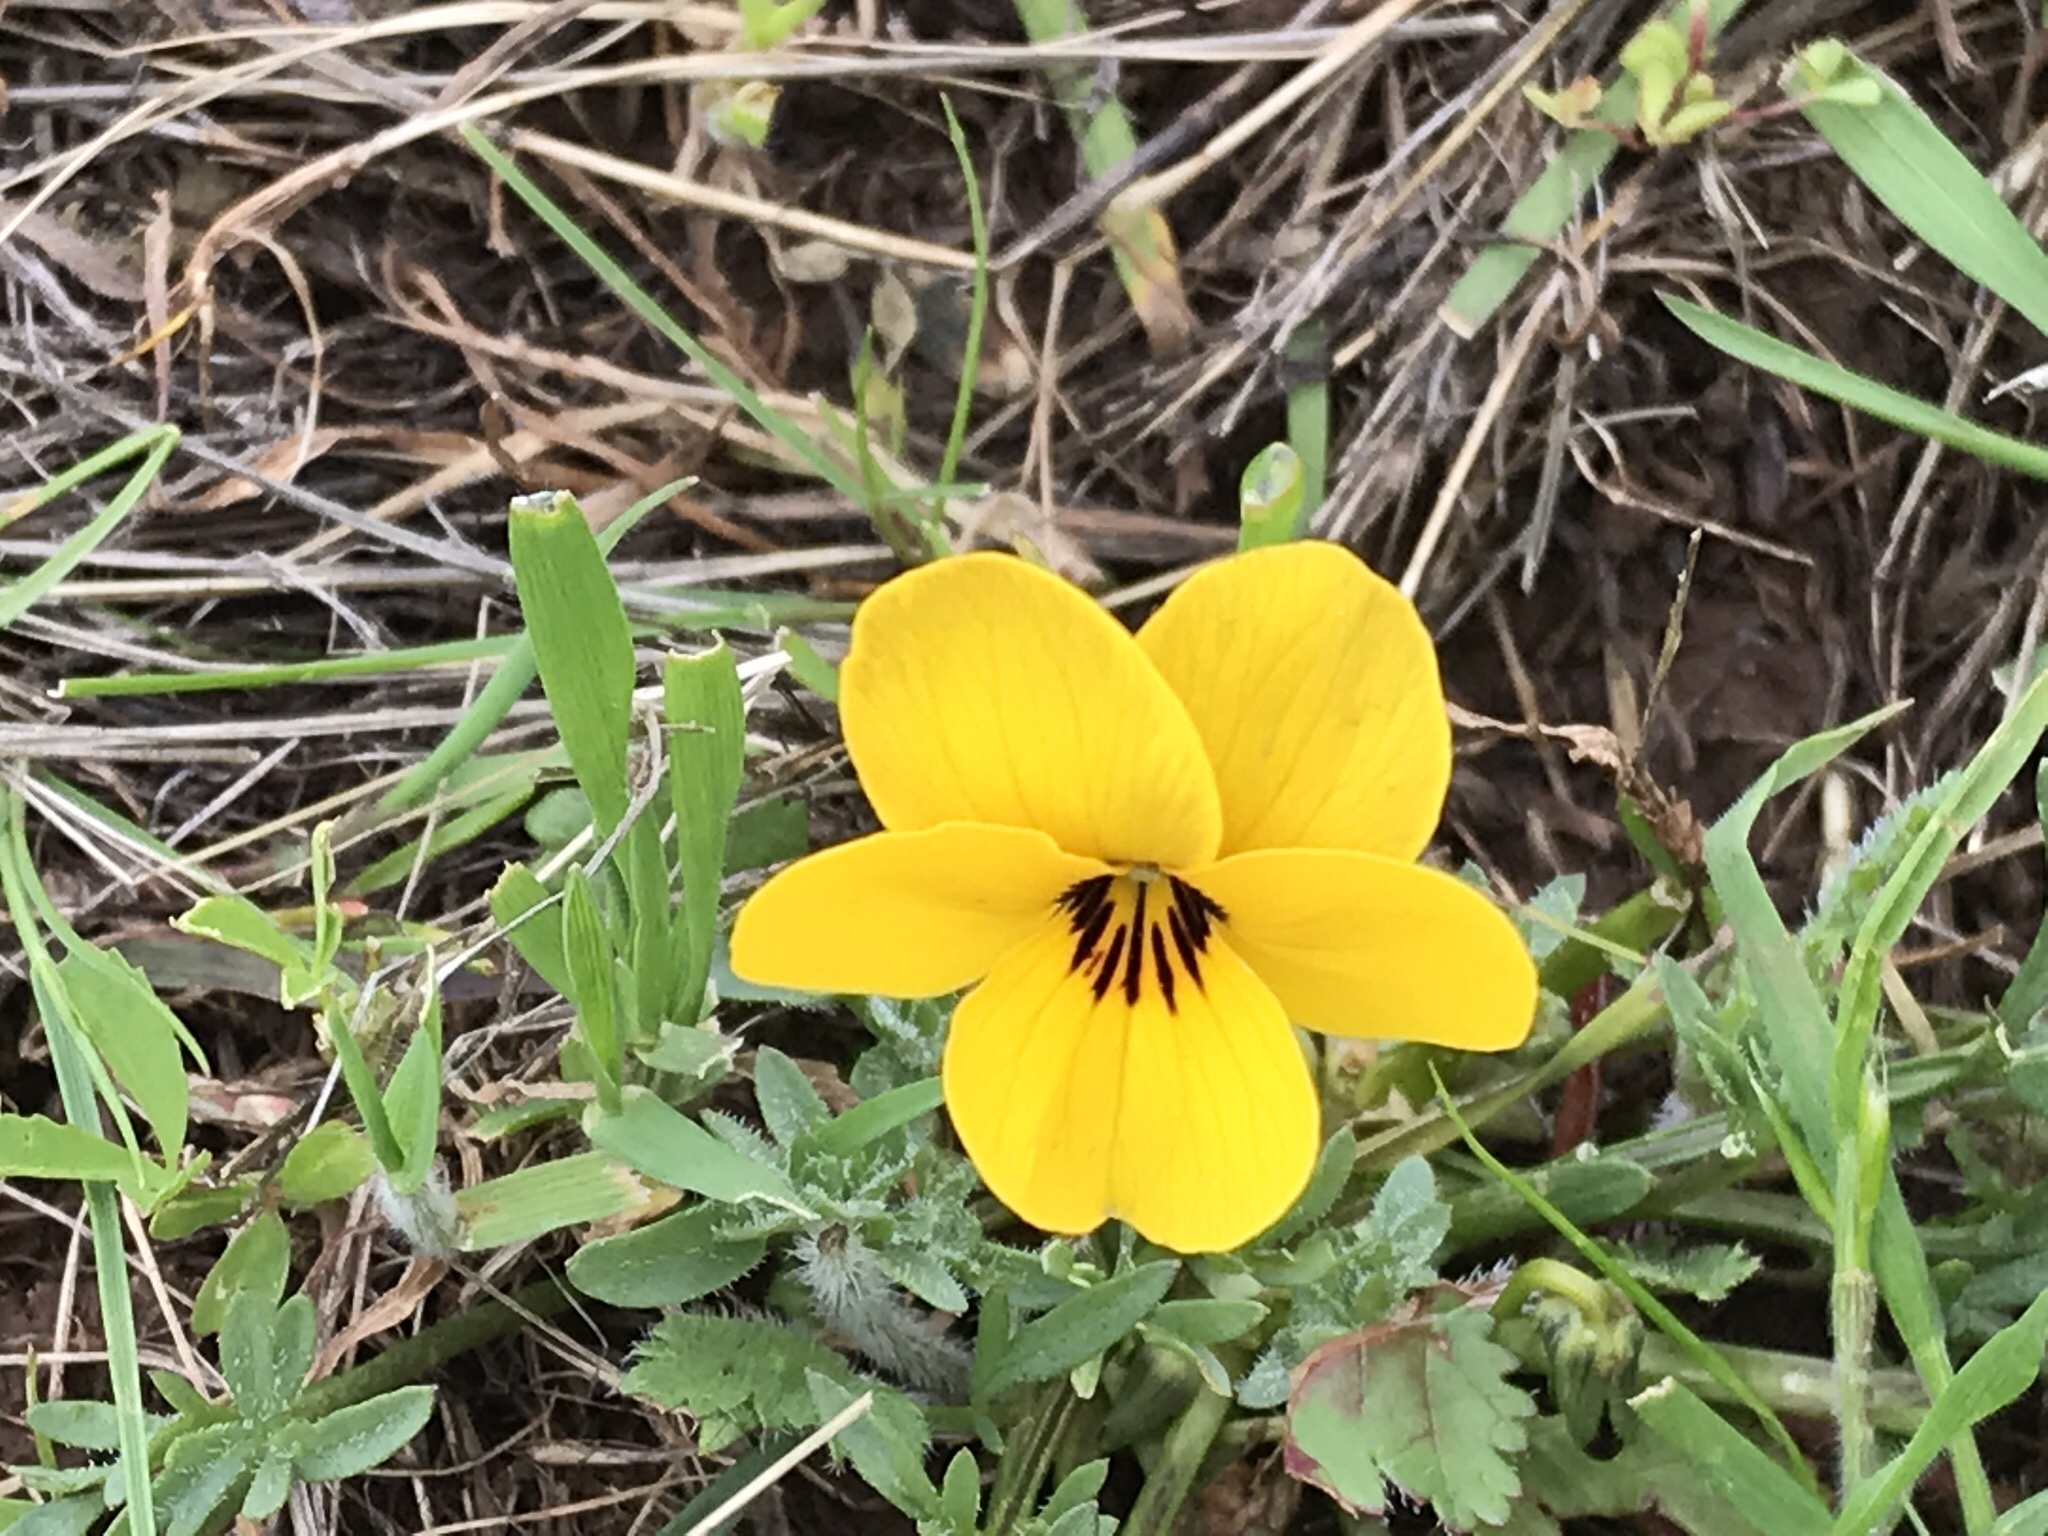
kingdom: Plantae
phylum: Tracheophyta
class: Magnoliopsida
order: Malpighiales
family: Violaceae
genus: Viola
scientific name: Viola douglasii
